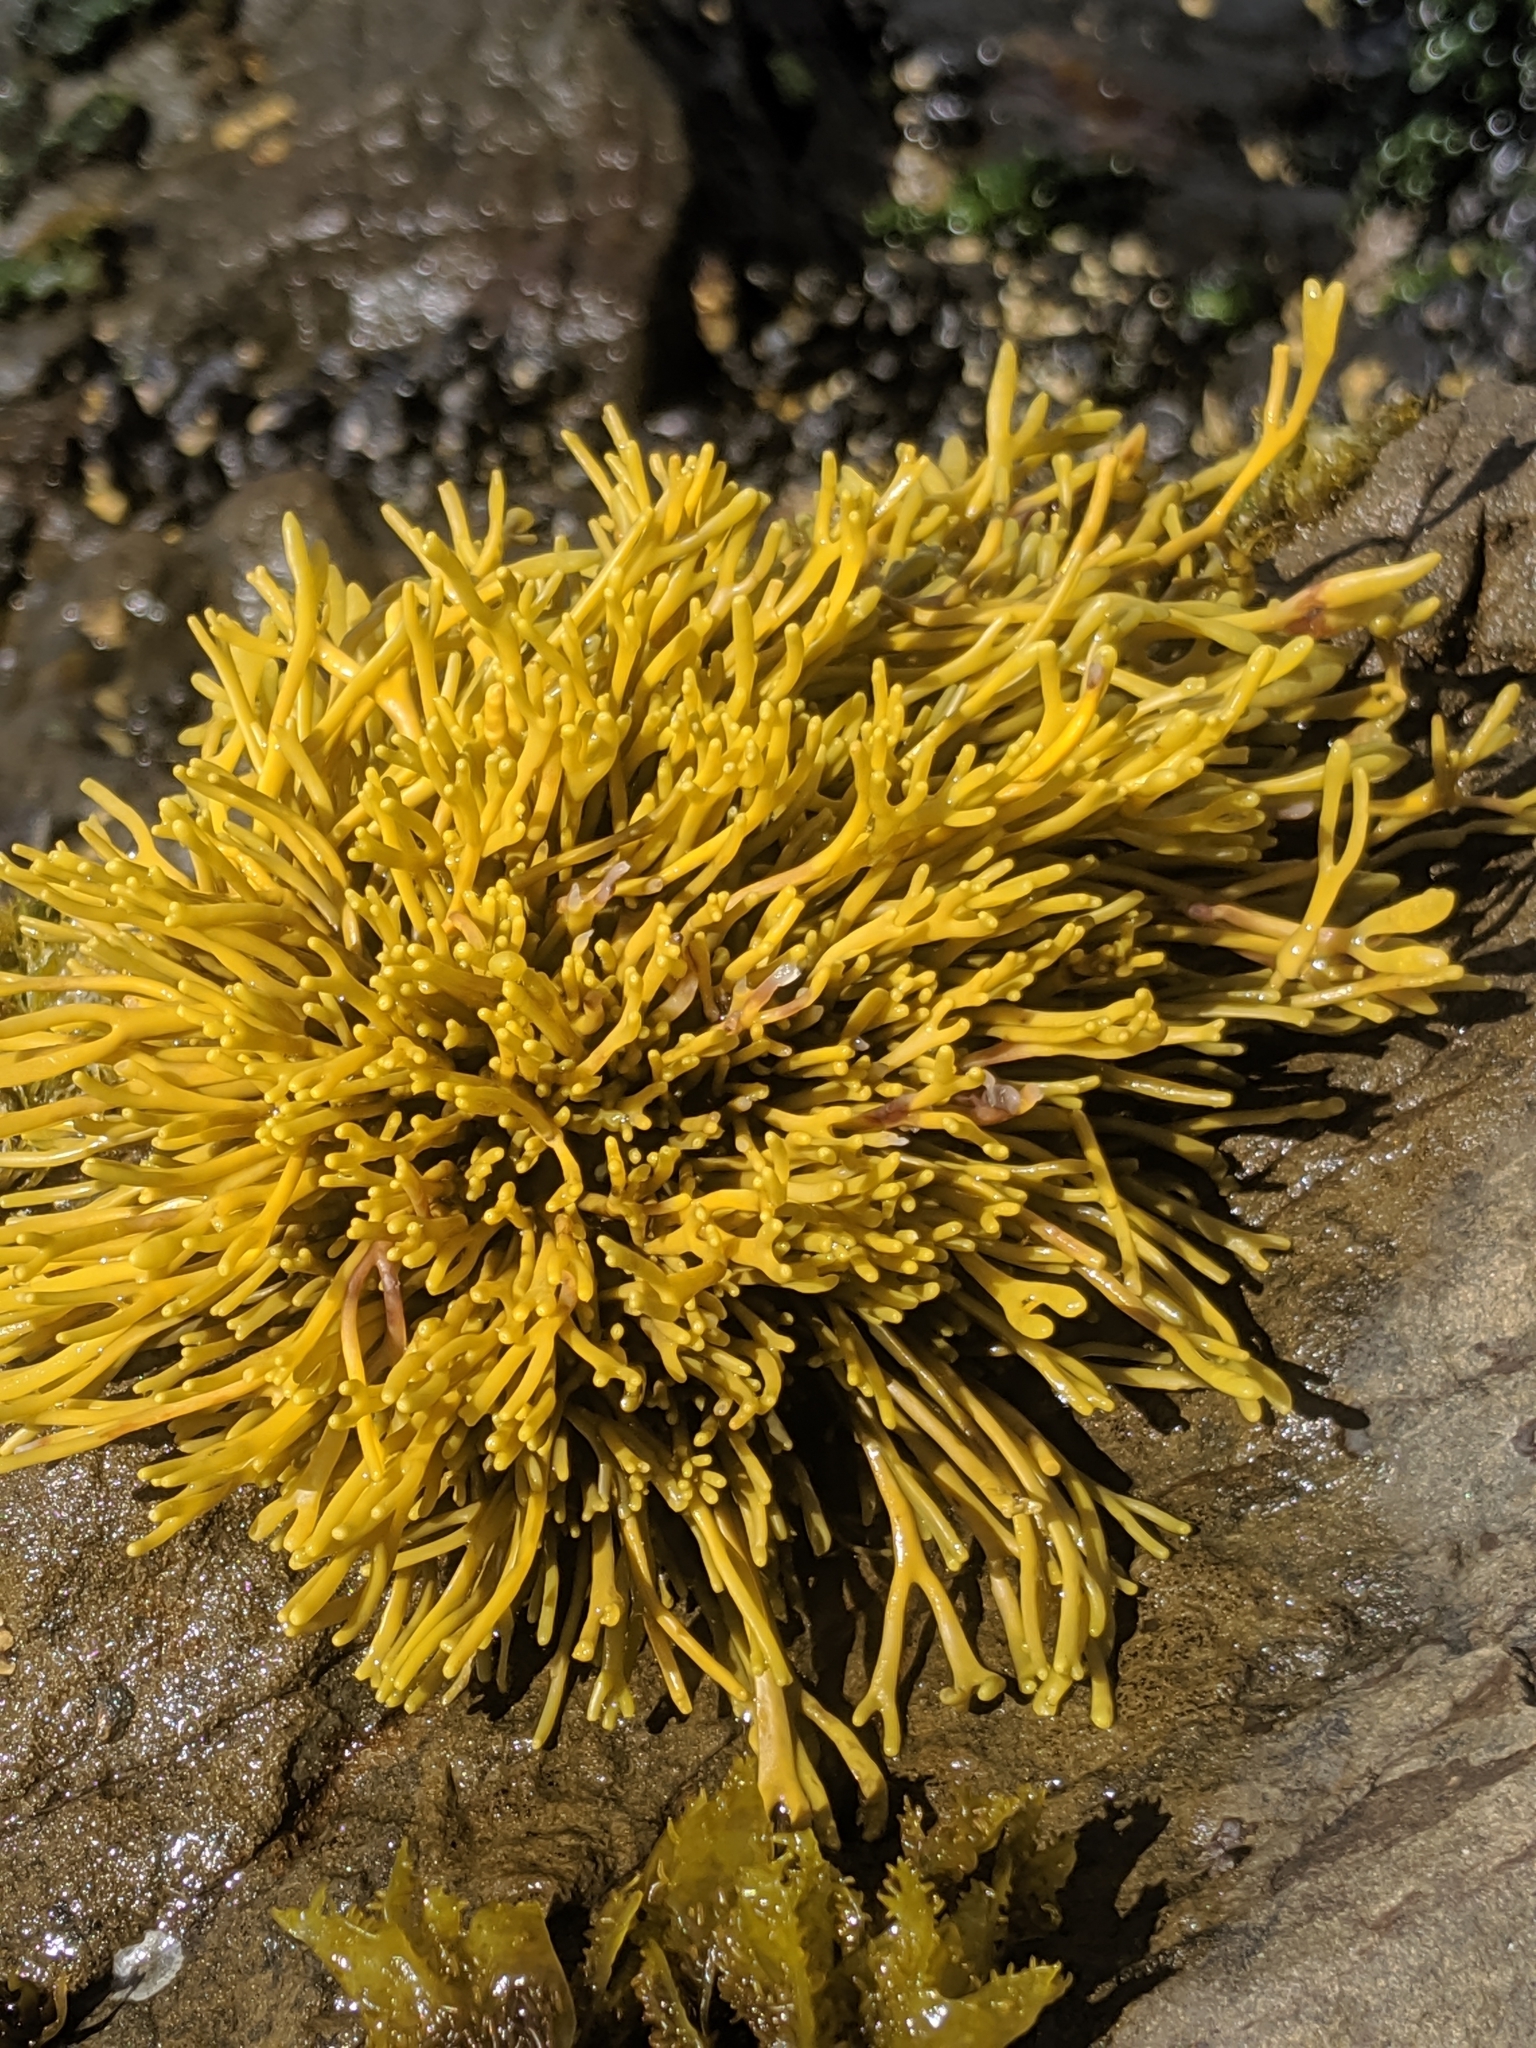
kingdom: Chromista
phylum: Ochrophyta
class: Phaeophyceae
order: Fucales
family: Fucaceae
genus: Pelvetiopsis
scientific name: Pelvetiopsis limitata
